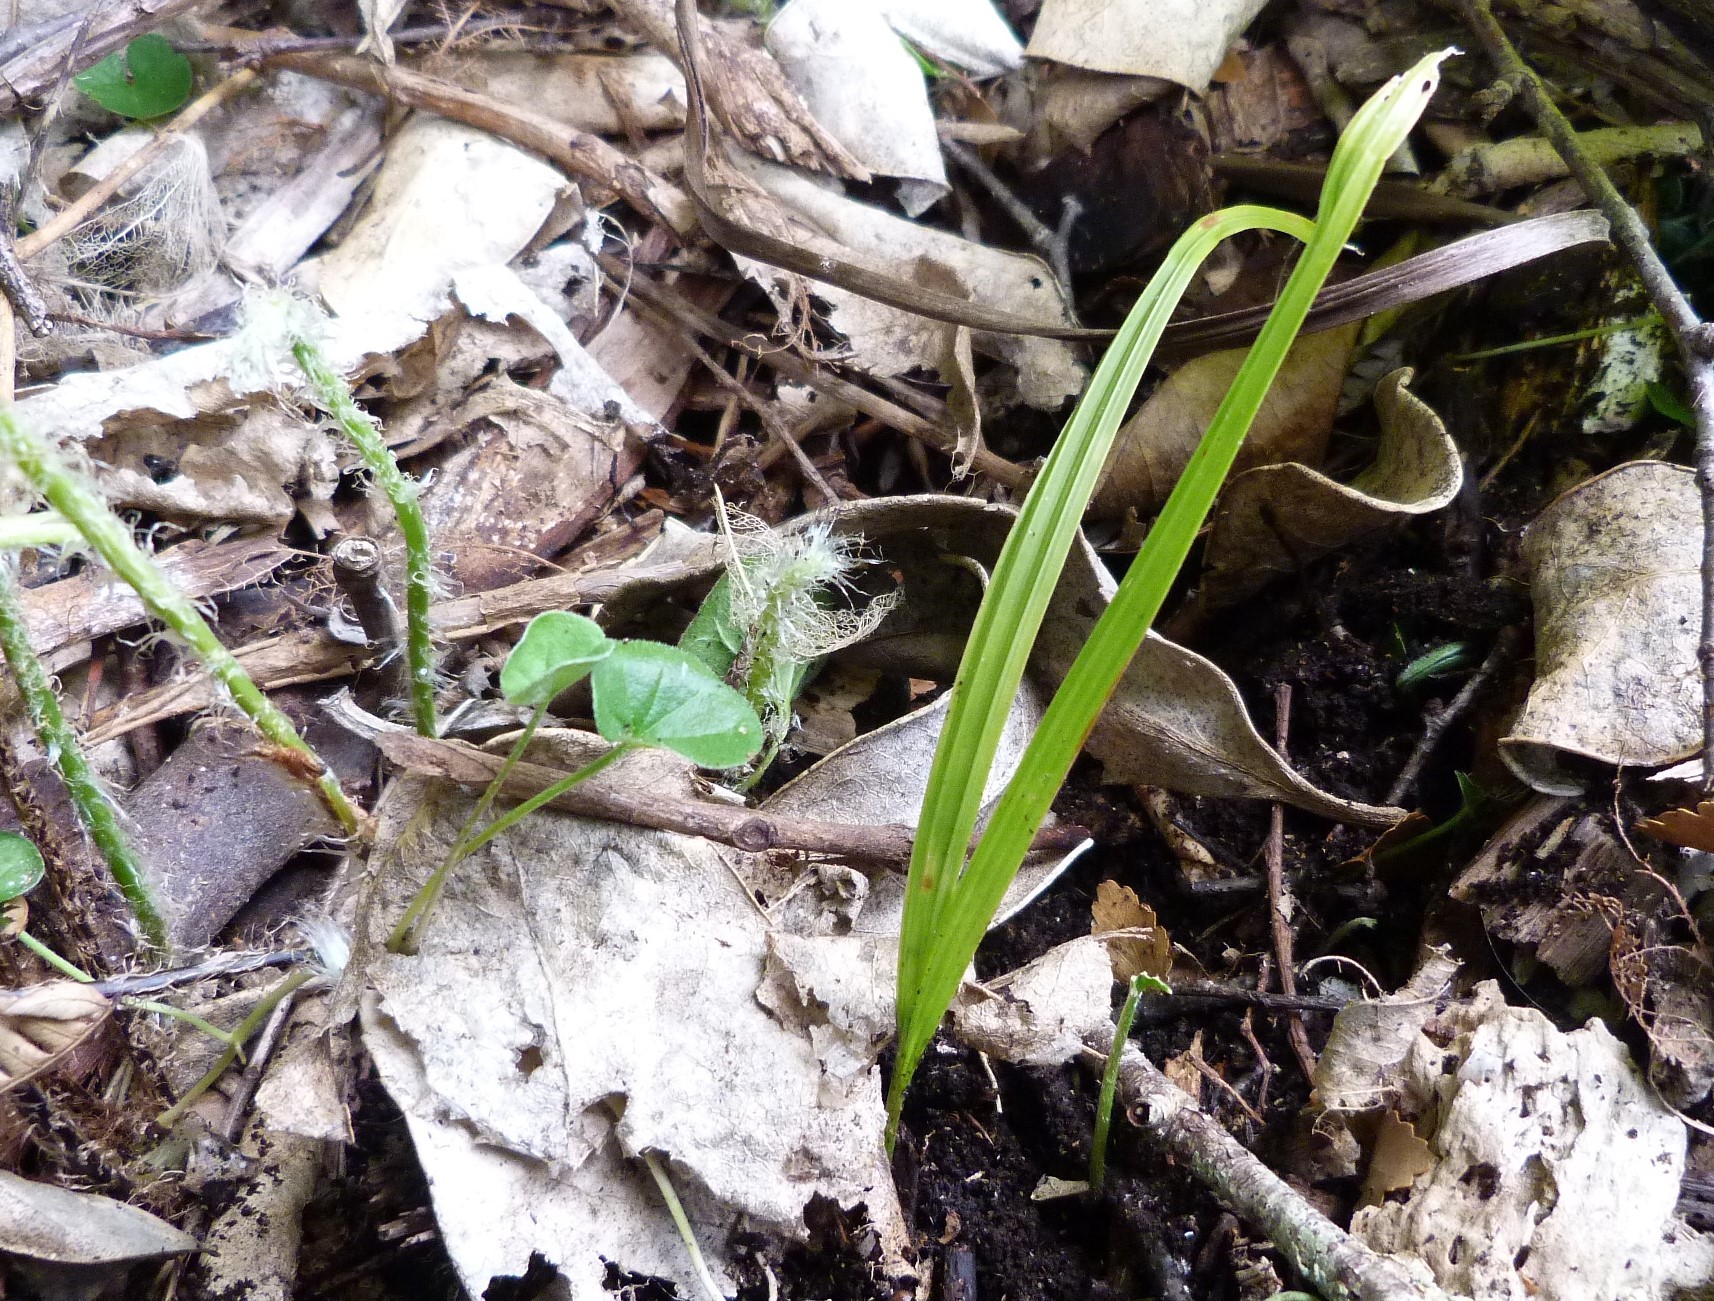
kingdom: Plantae
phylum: Tracheophyta
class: Liliopsida
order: Arecales
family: Arecaceae
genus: Rhopalostylis
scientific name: Rhopalostylis sapida
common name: Feather-duster palm
